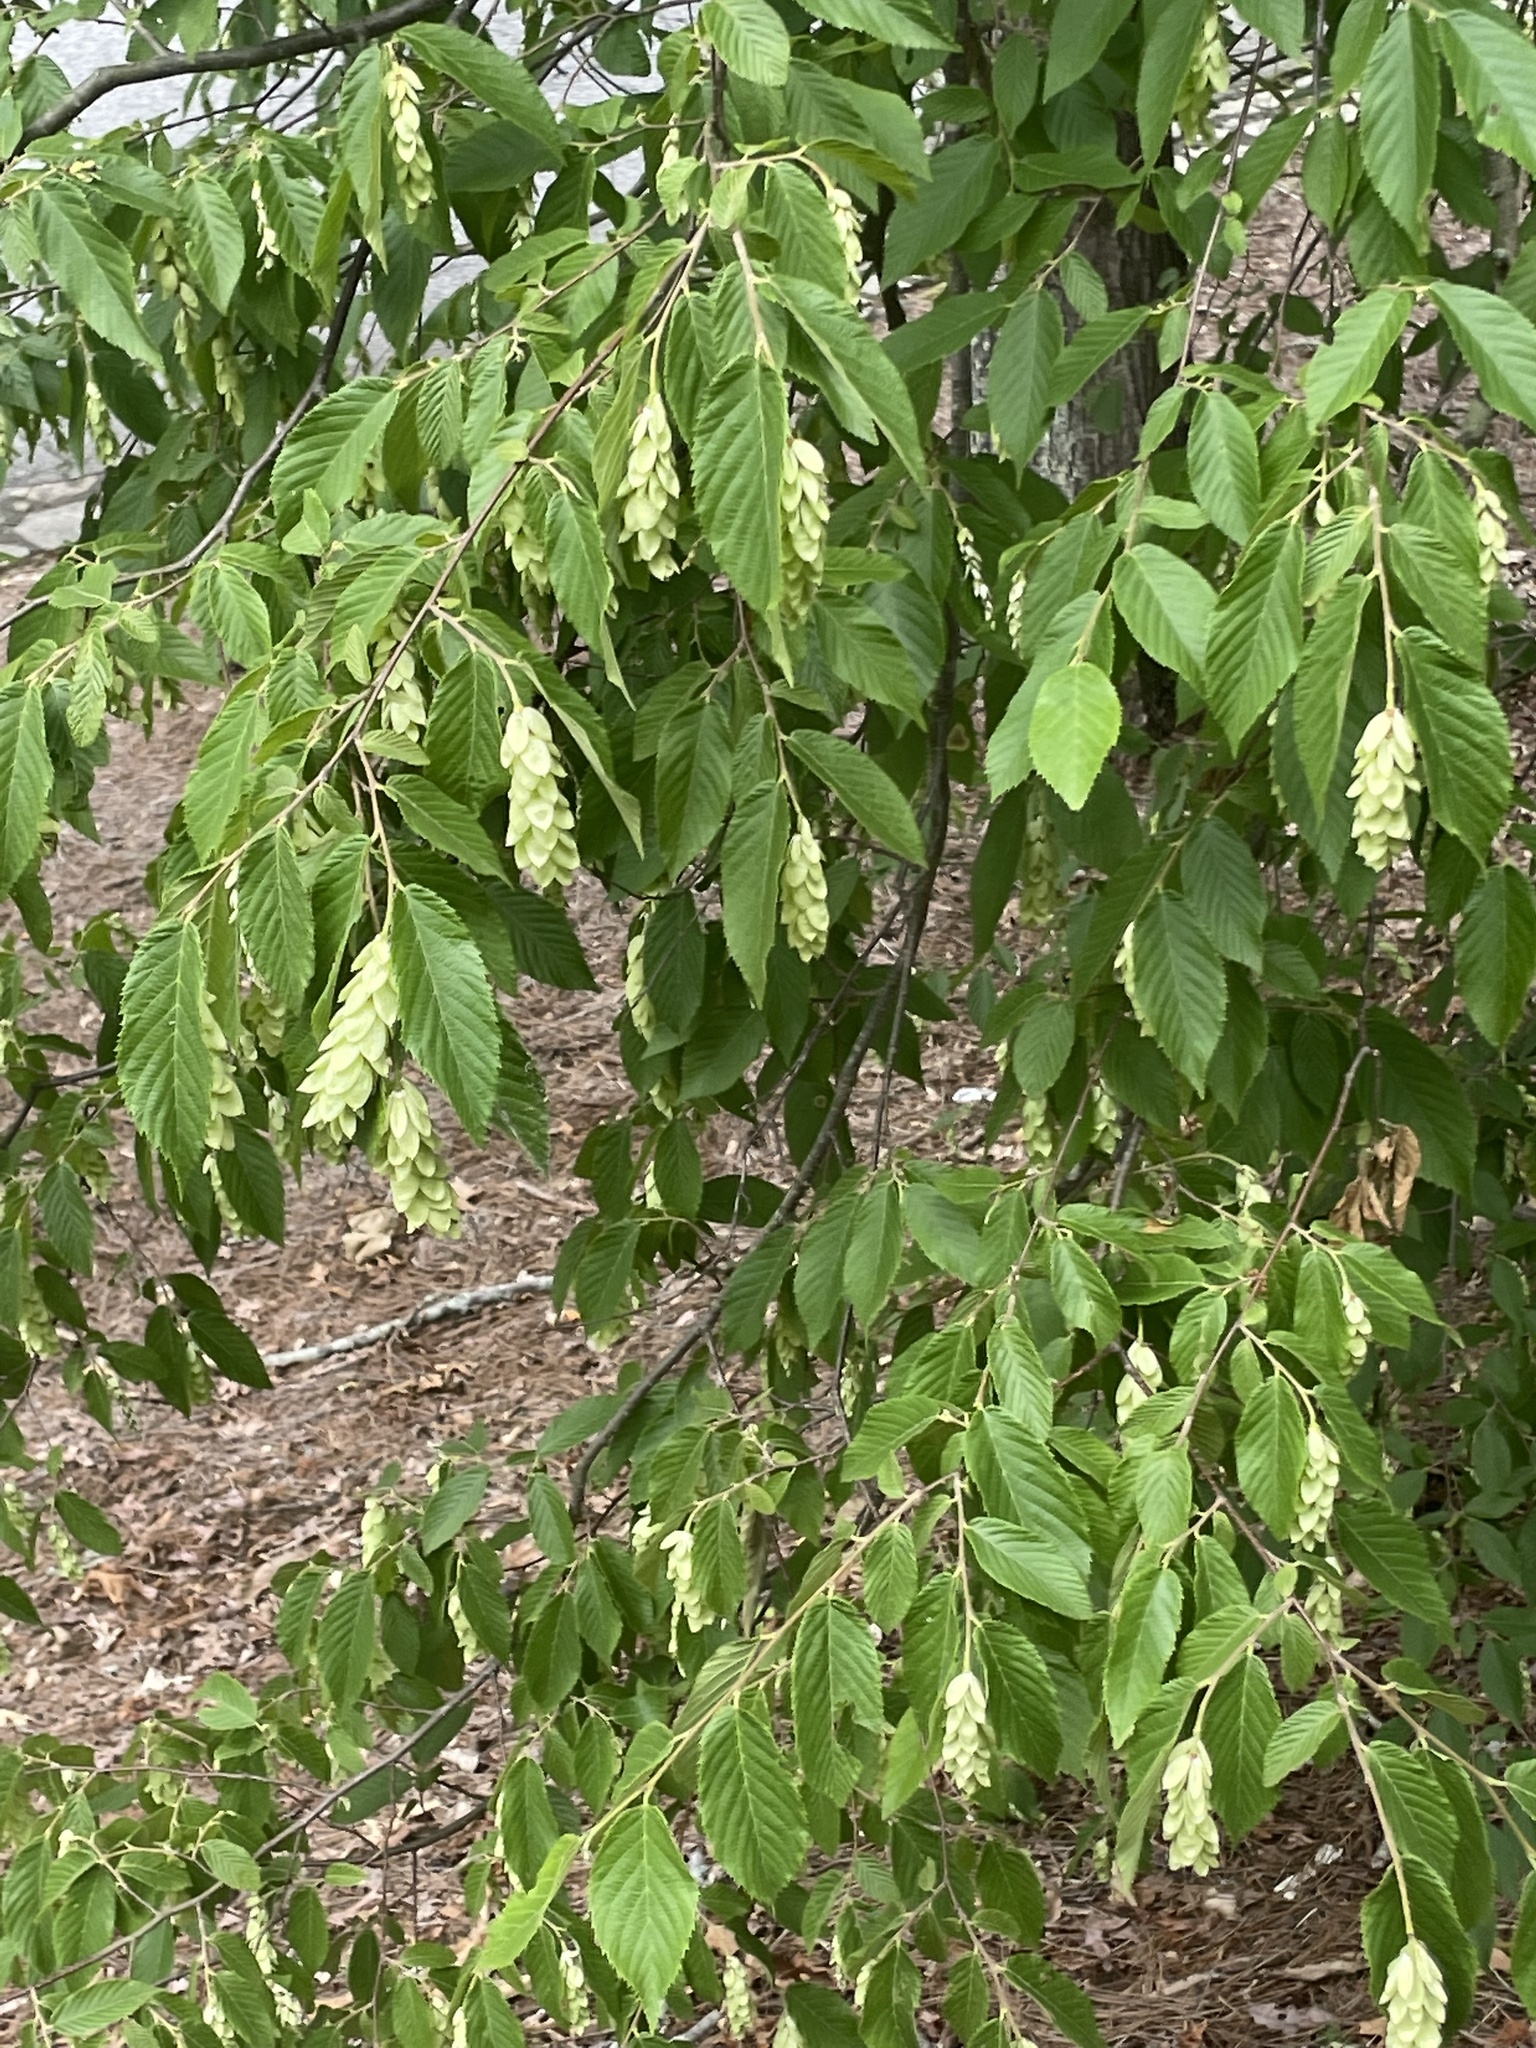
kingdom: Plantae
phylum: Tracheophyta
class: Magnoliopsida
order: Fagales
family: Betulaceae
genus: Ostrya
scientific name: Ostrya virginiana
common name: Ironwood
